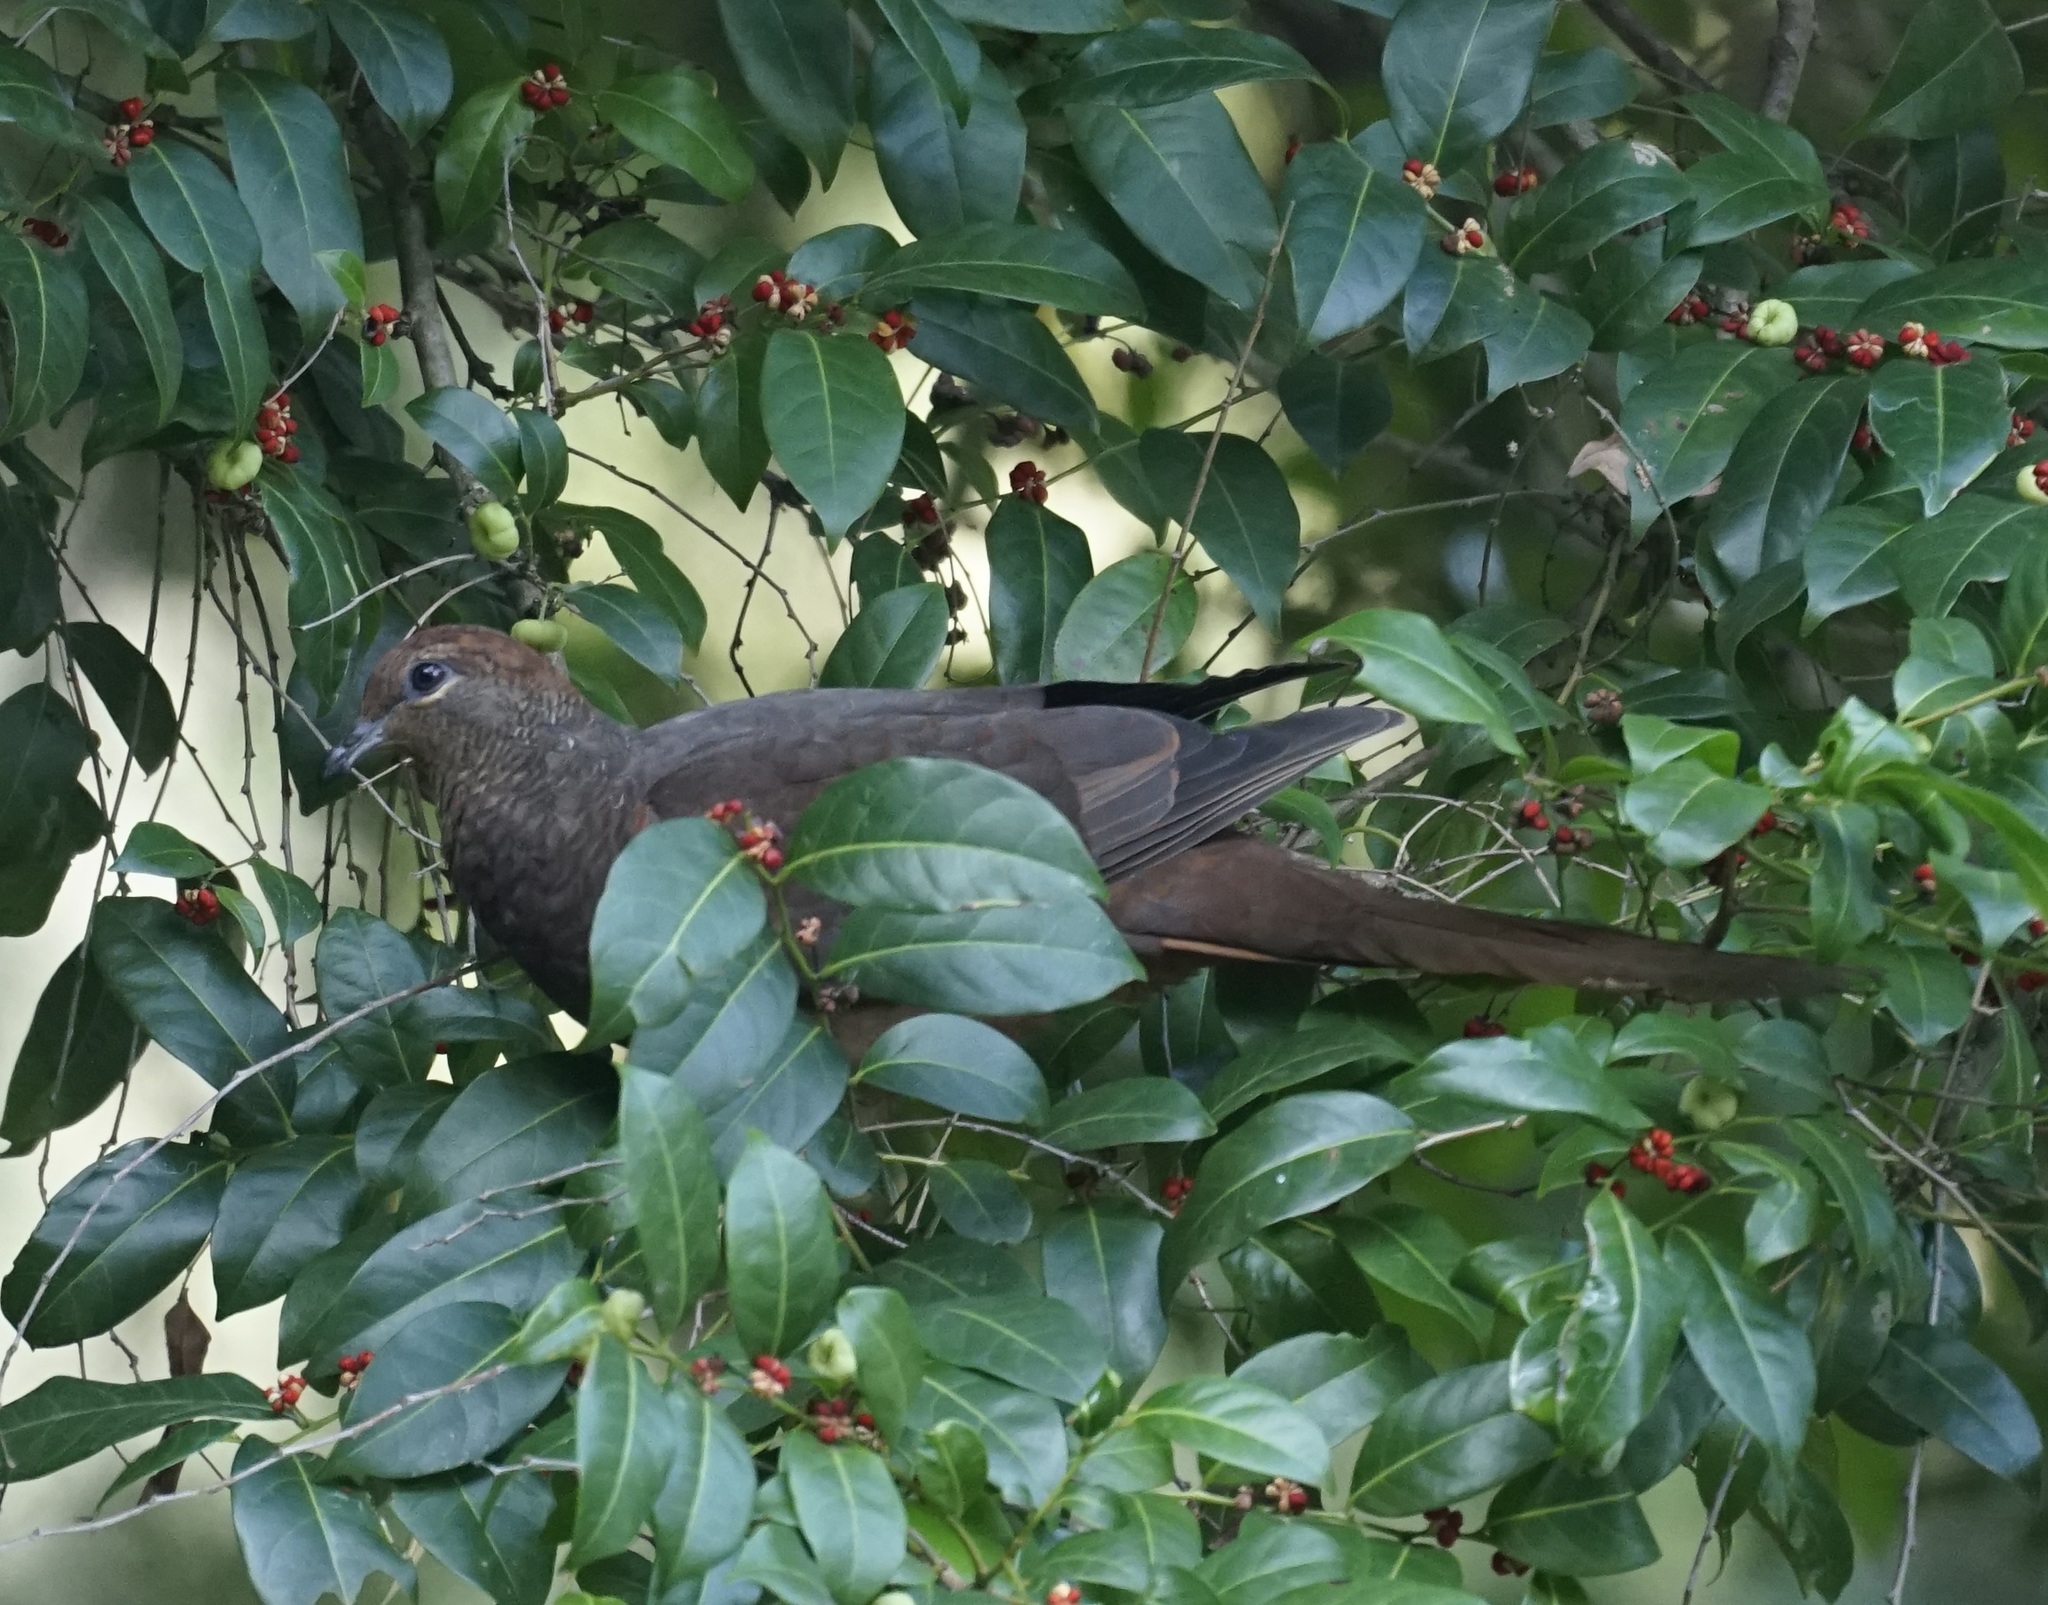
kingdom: Animalia
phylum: Chordata
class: Aves
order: Columbiformes
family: Columbidae
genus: Macropygia
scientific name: Macropygia phasianella
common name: Brown cuckoo-dove
